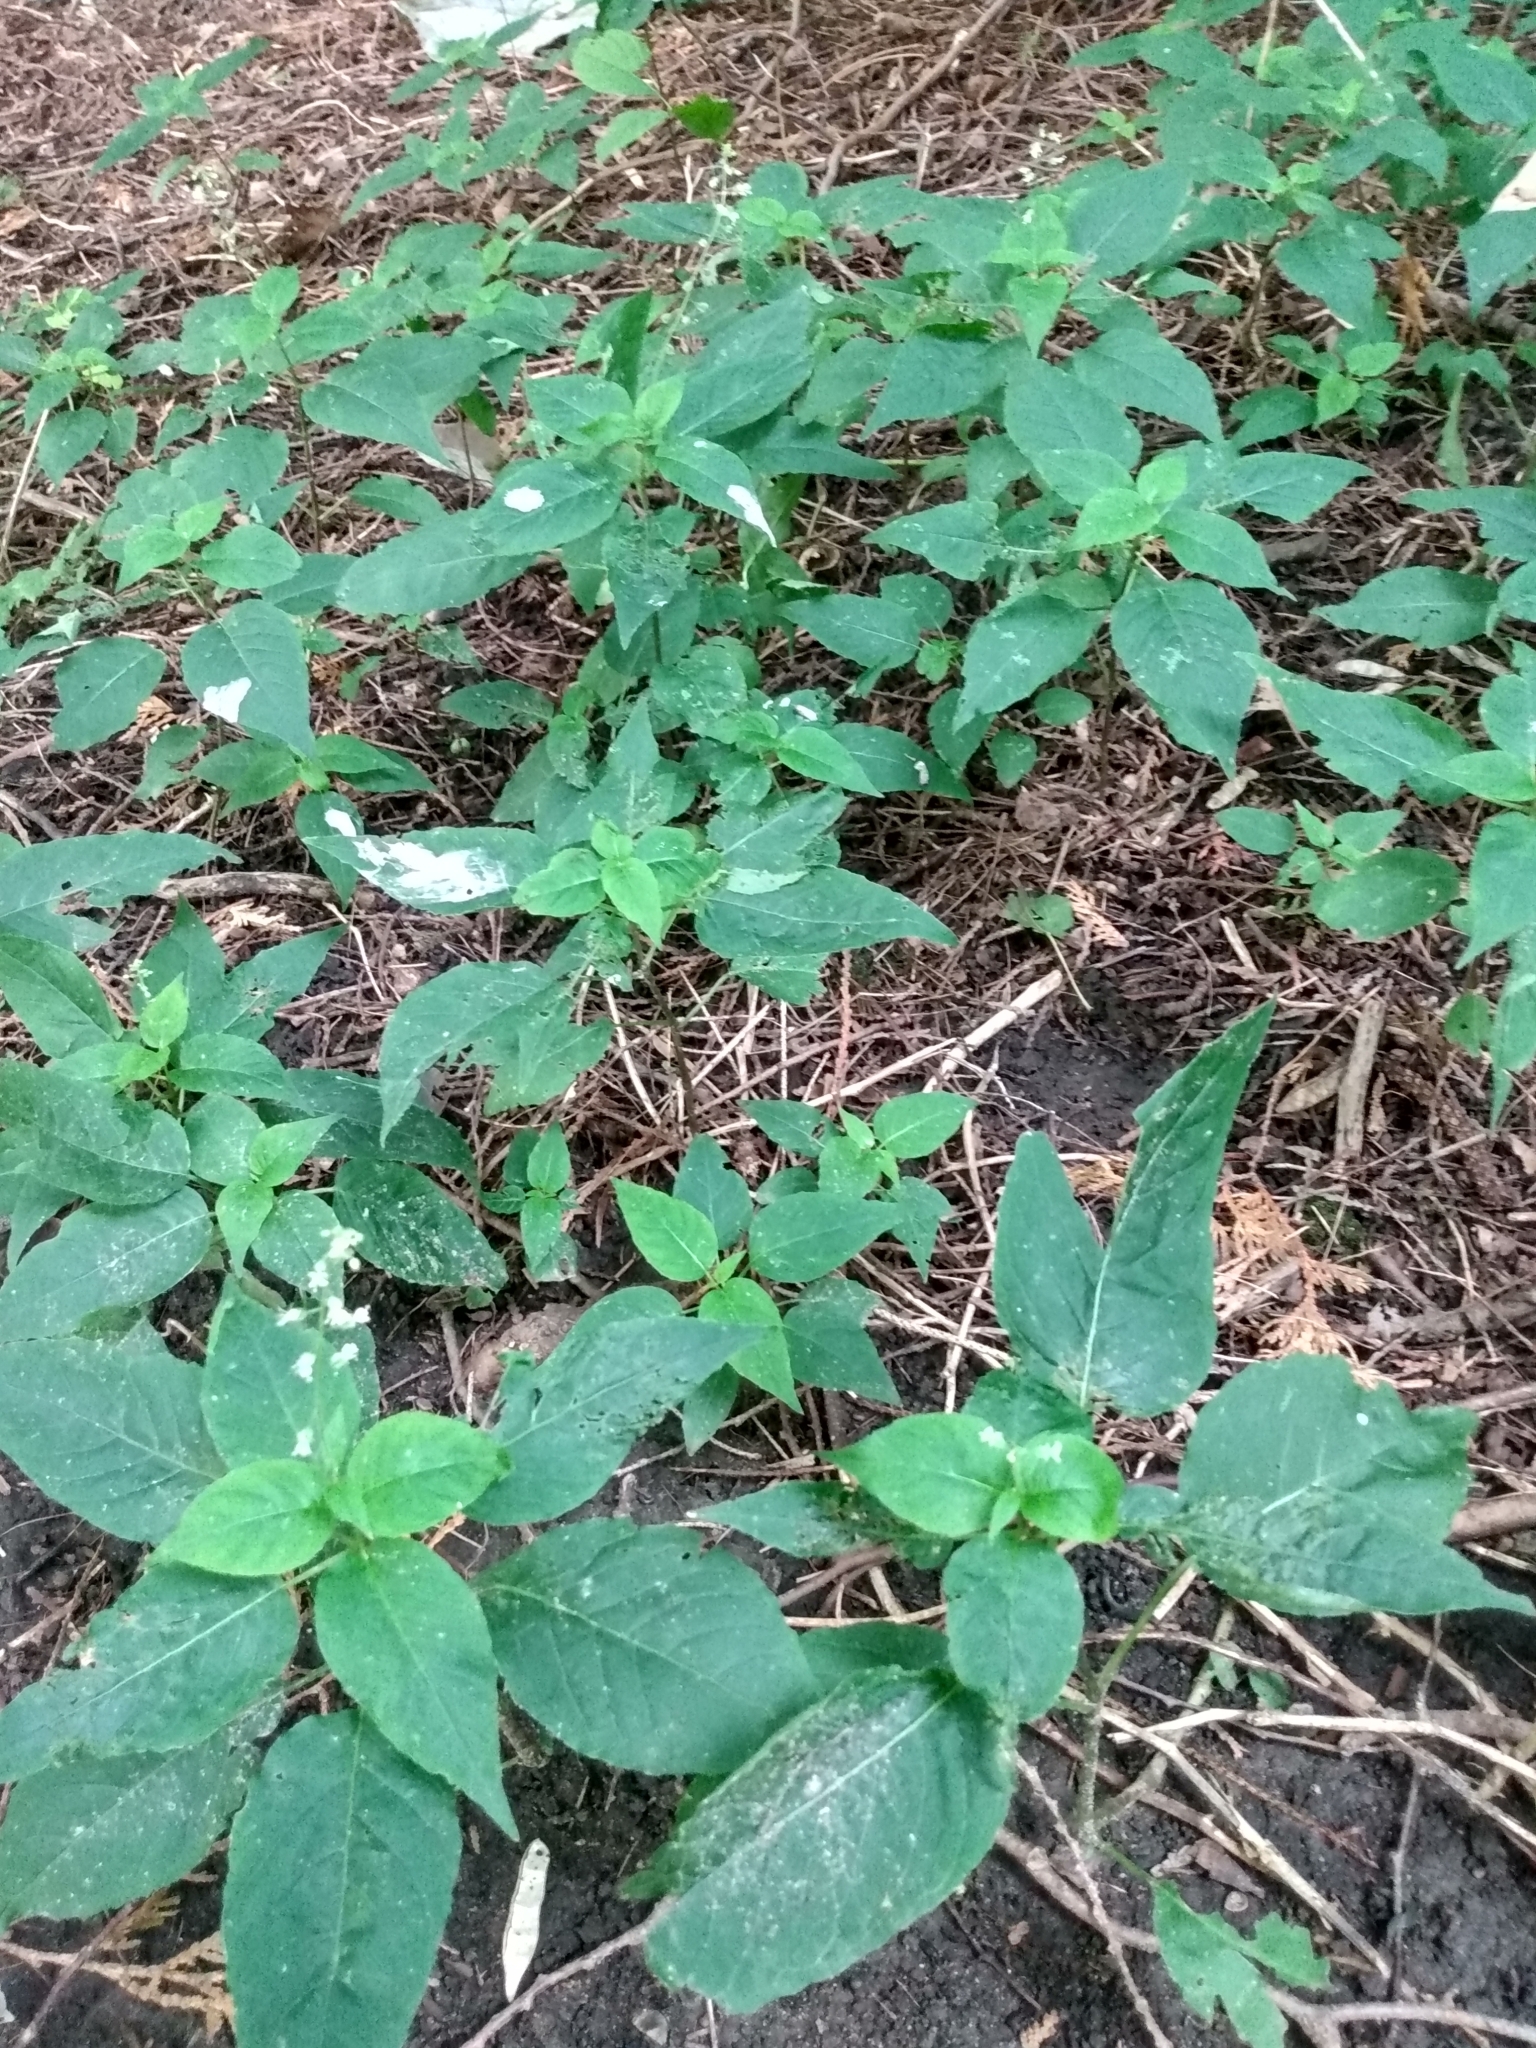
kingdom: Plantae
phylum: Tracheophyta
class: Magnoliopsida
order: Myrtales
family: Onagraceae
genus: Circaea
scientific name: Circaea canadensis
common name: Broad-leaved enchanter's nightshade
